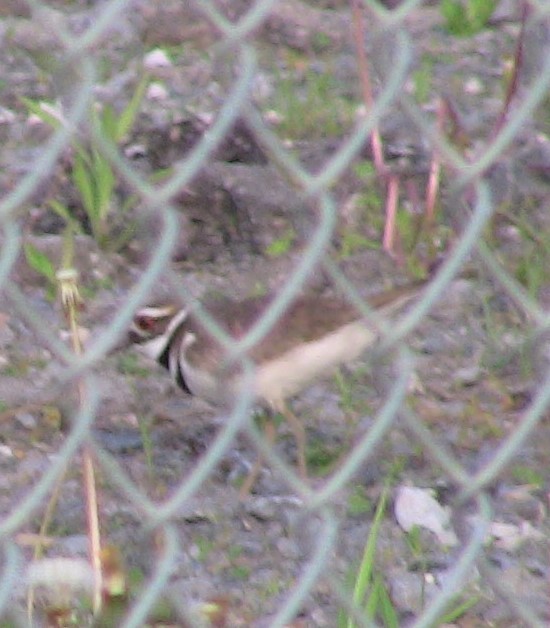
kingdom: Animalia
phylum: Chordata
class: Aves
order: Charadriiformes
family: Charadriidae
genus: Charadrius
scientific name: Charadrius vociferus
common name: Killdeer
